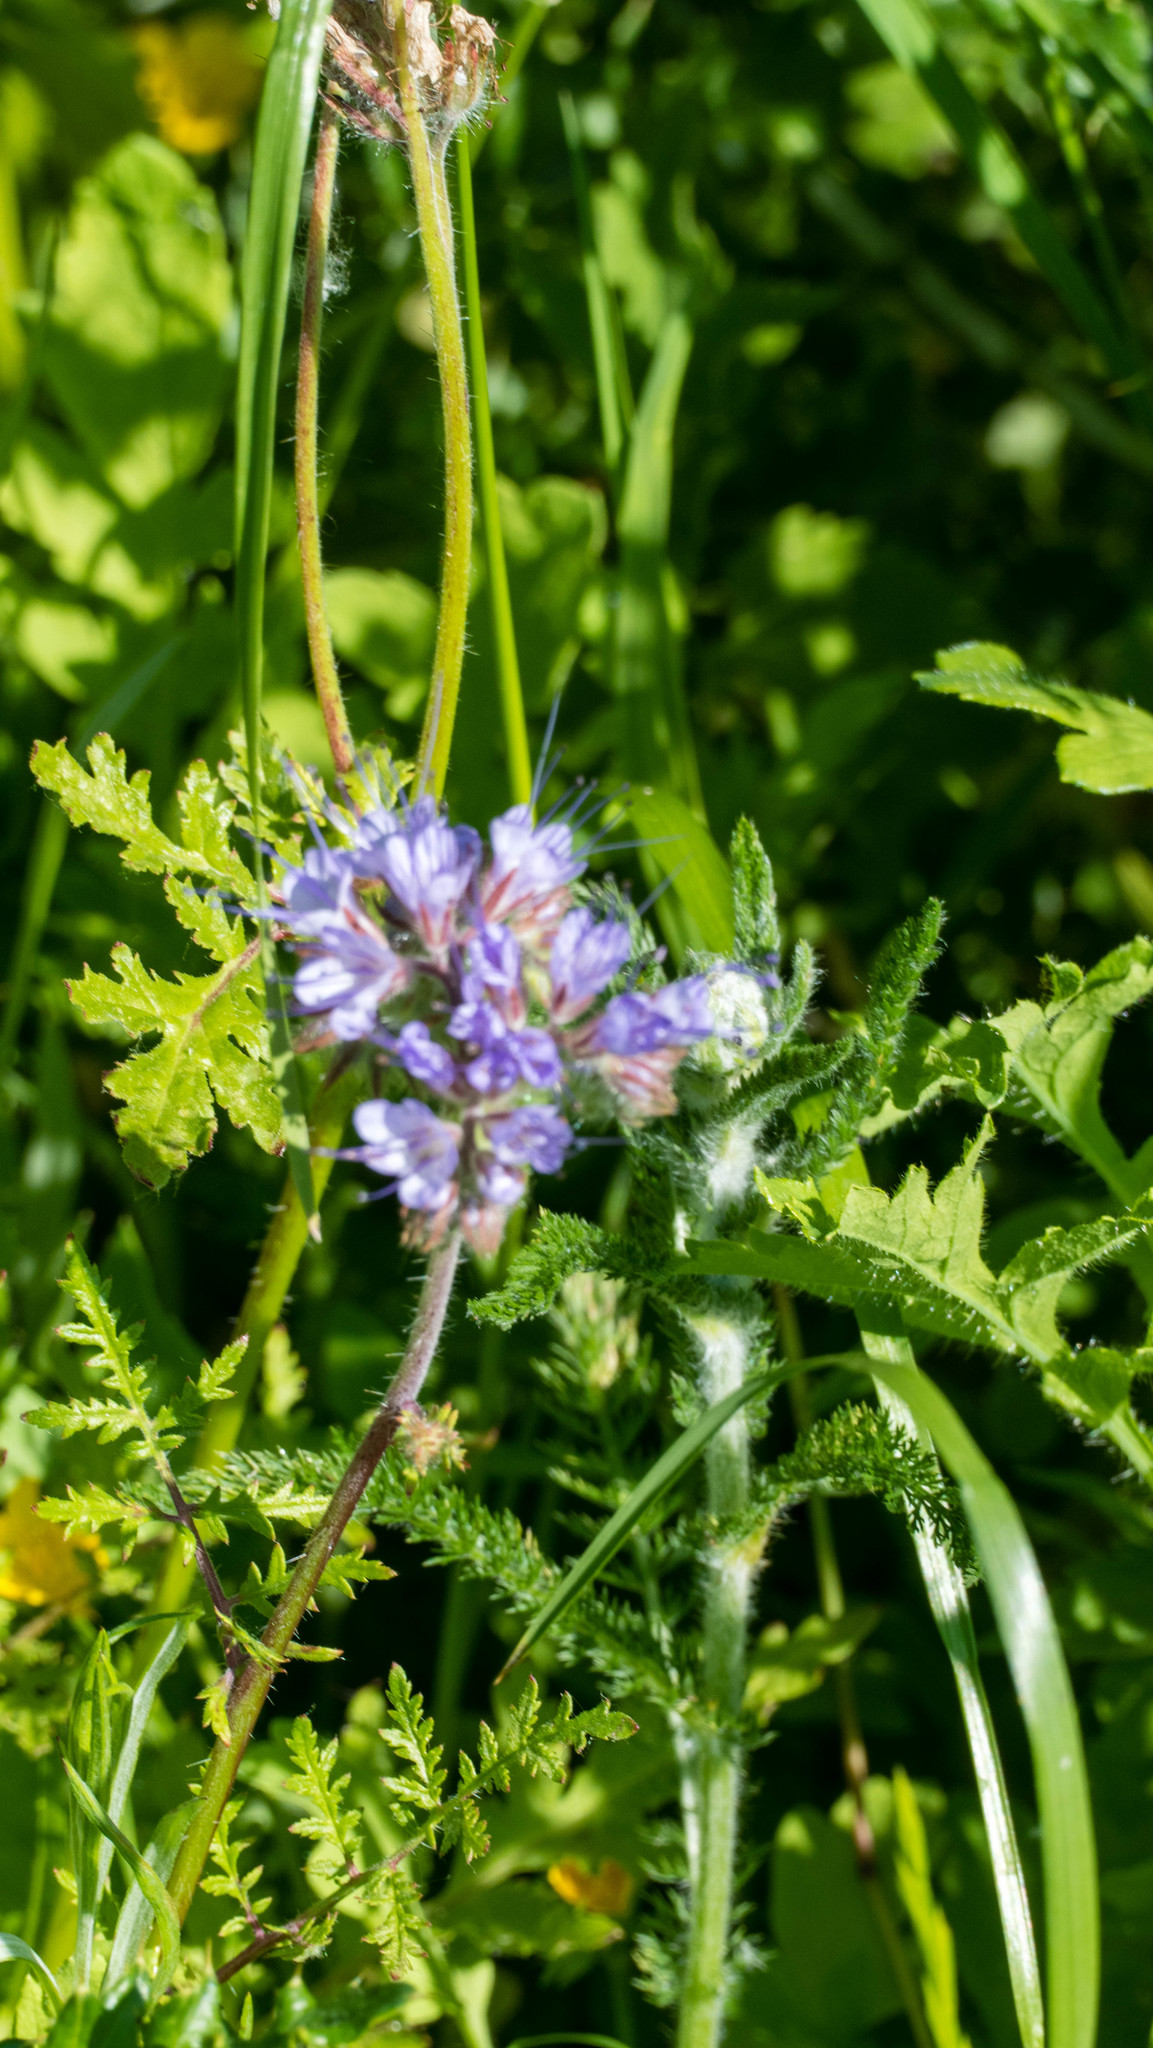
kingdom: Plantae
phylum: Tracheophyta
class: Magnoliopsida
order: Boraginales
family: Hydrophyllaceae
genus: Phacelia
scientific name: Phacelia tanacetifolia
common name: Phacelia
